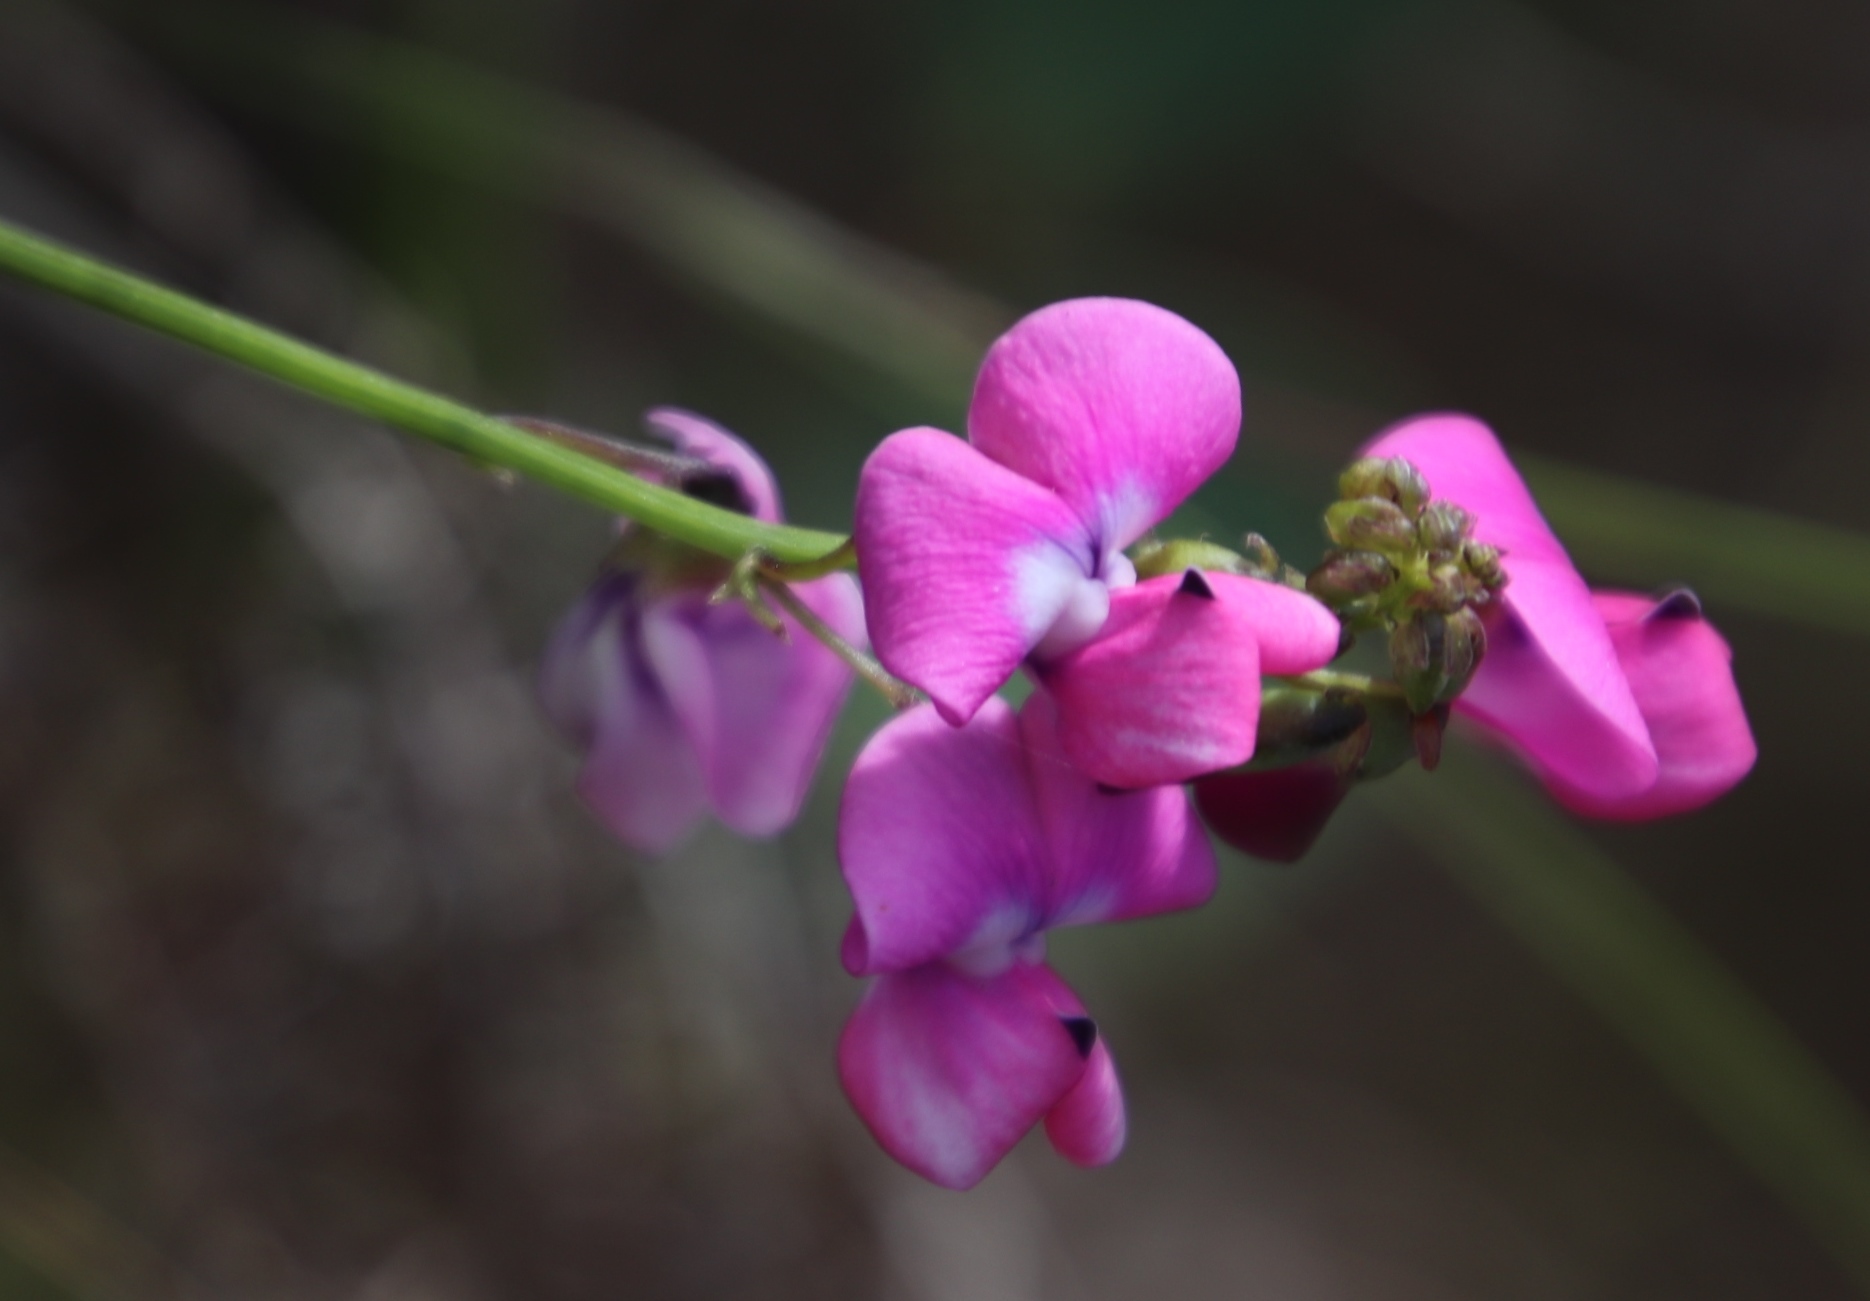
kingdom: Plantae
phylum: Tracheophyta
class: Magnoliopsida
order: Fabales
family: Fabaceae
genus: Dipogon
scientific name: Dipogon lignosus
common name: Okie bean
